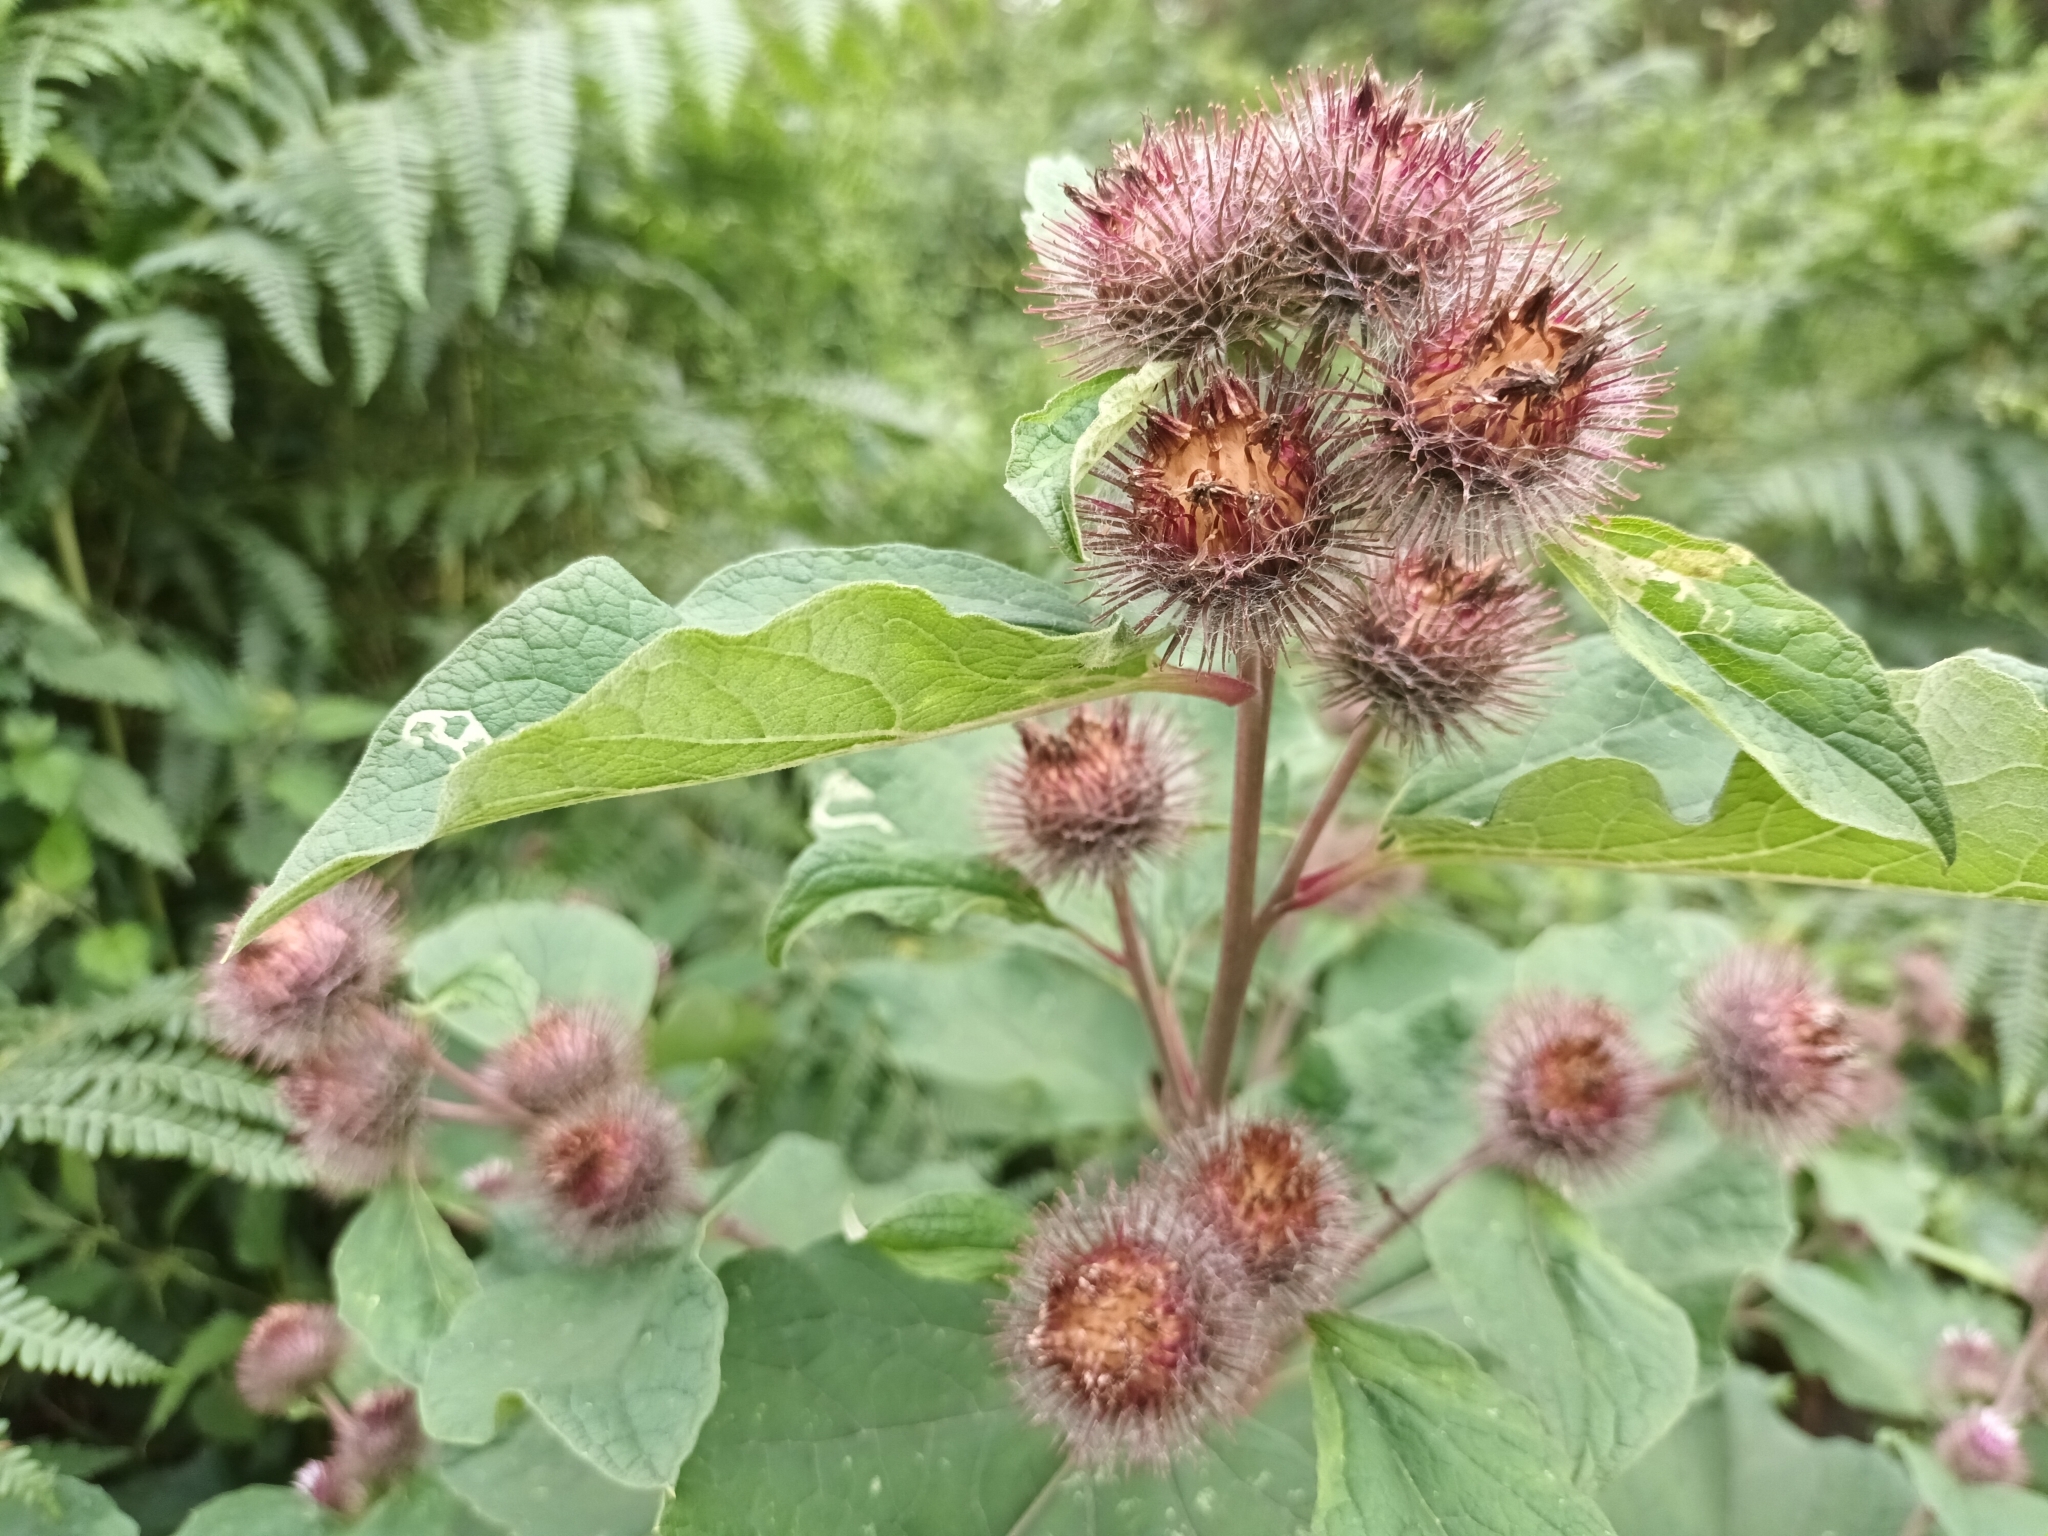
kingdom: Plantae
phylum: Tracheophyta
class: Magnoliopsida
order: Asterales
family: Asteraceae
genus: Arctium
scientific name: Arctium lappa
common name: Greater burdock
